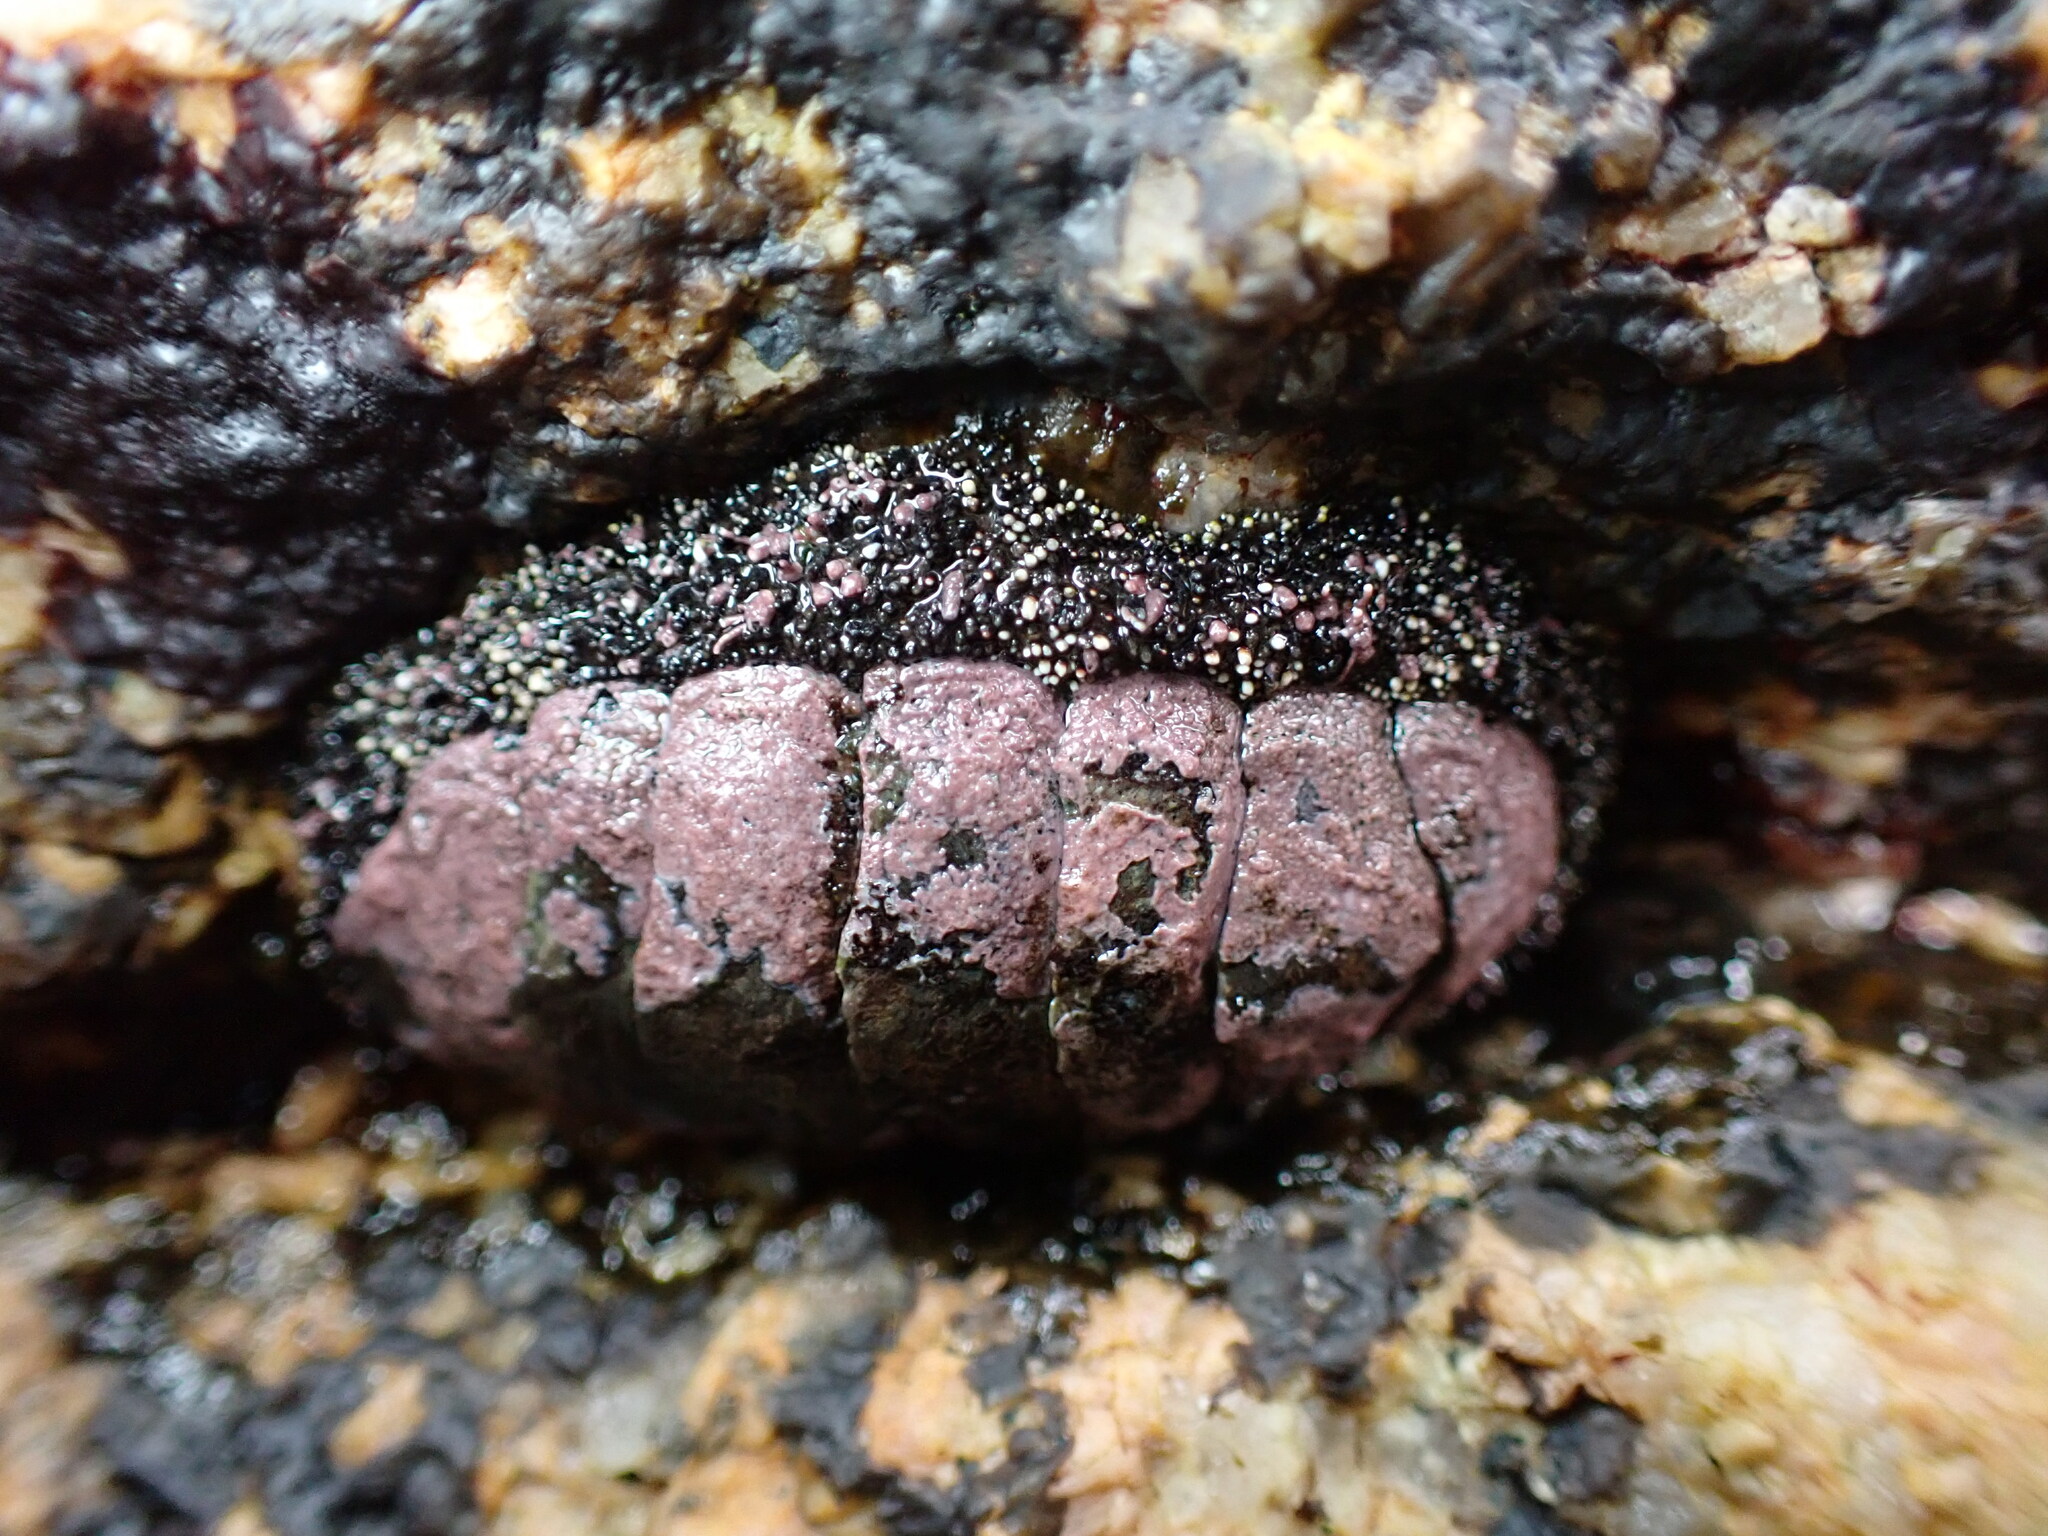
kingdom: Animalia
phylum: Mollusca
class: Polyplacophora
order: Chitonida
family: Chitonidae
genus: Liolophura
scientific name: Liolophura japonica
